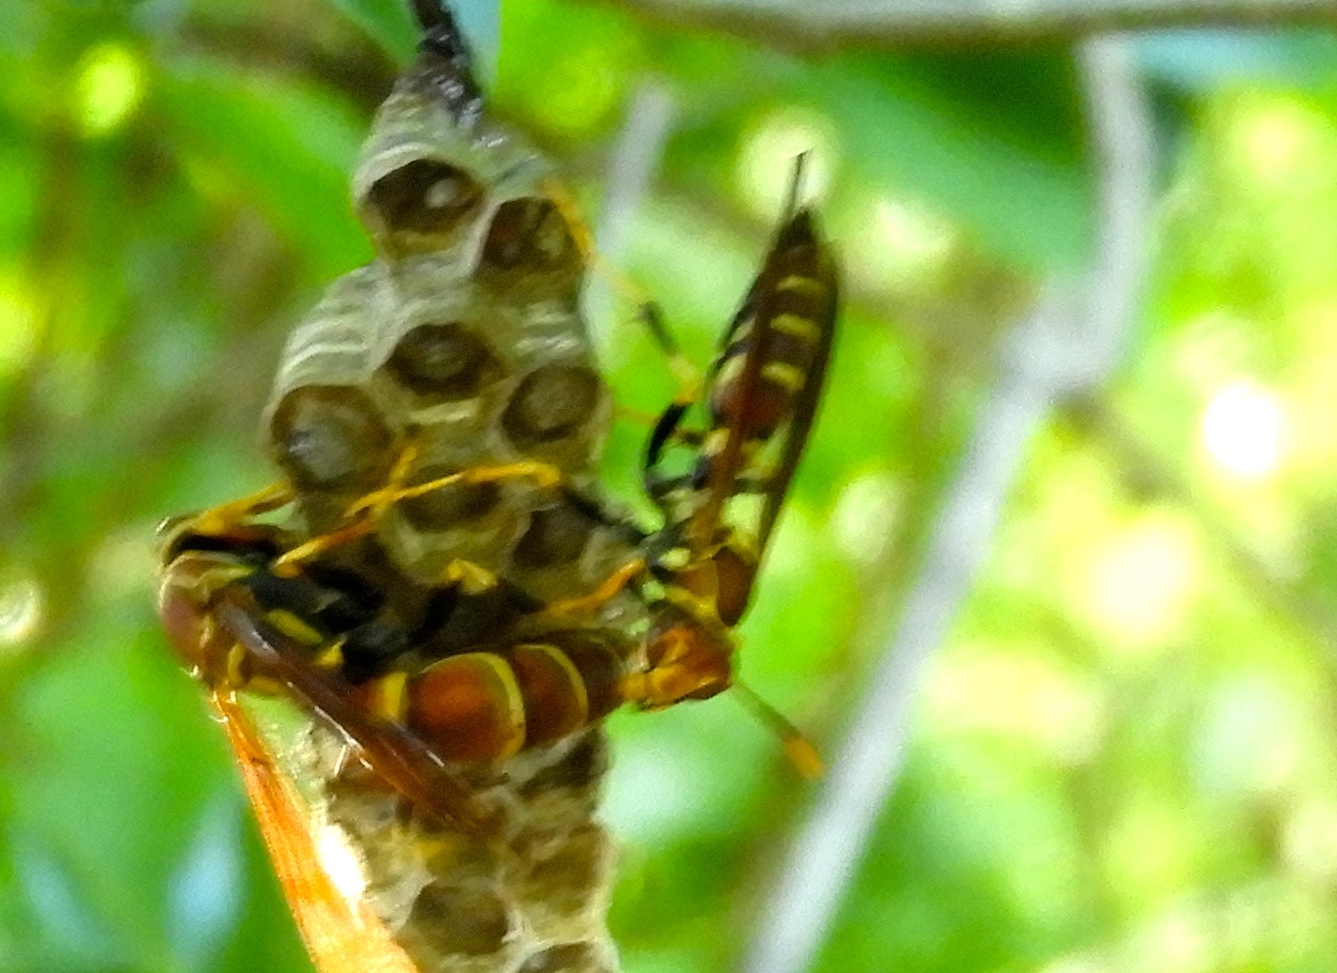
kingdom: Animalia
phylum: Arthropoda
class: Insecta
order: Hymenoptera
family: Eumenidae
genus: Polistes
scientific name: Polistes instabilis
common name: Unstable paper wasp
